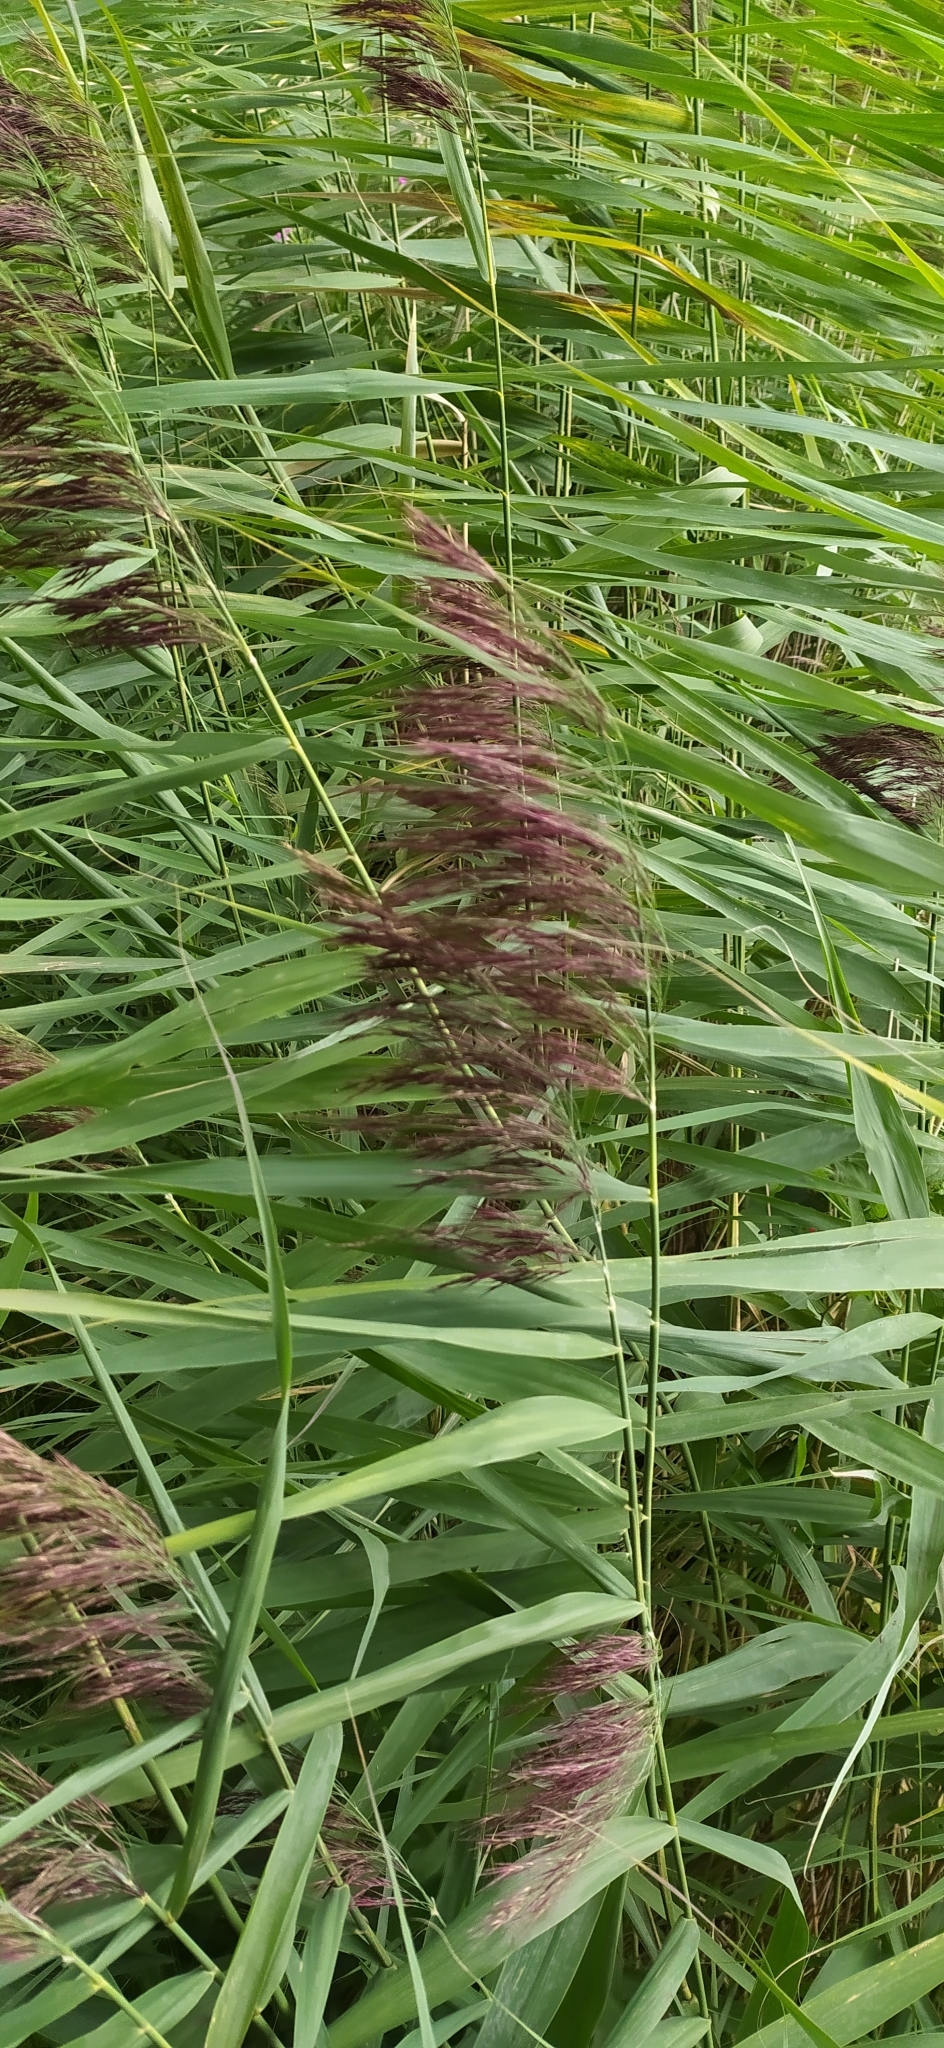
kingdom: Plantae
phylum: Tracheophyta
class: Liliopsida
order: Poales
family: Poaceae
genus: Phragmites
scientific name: Phragmites australis
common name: Common reed
